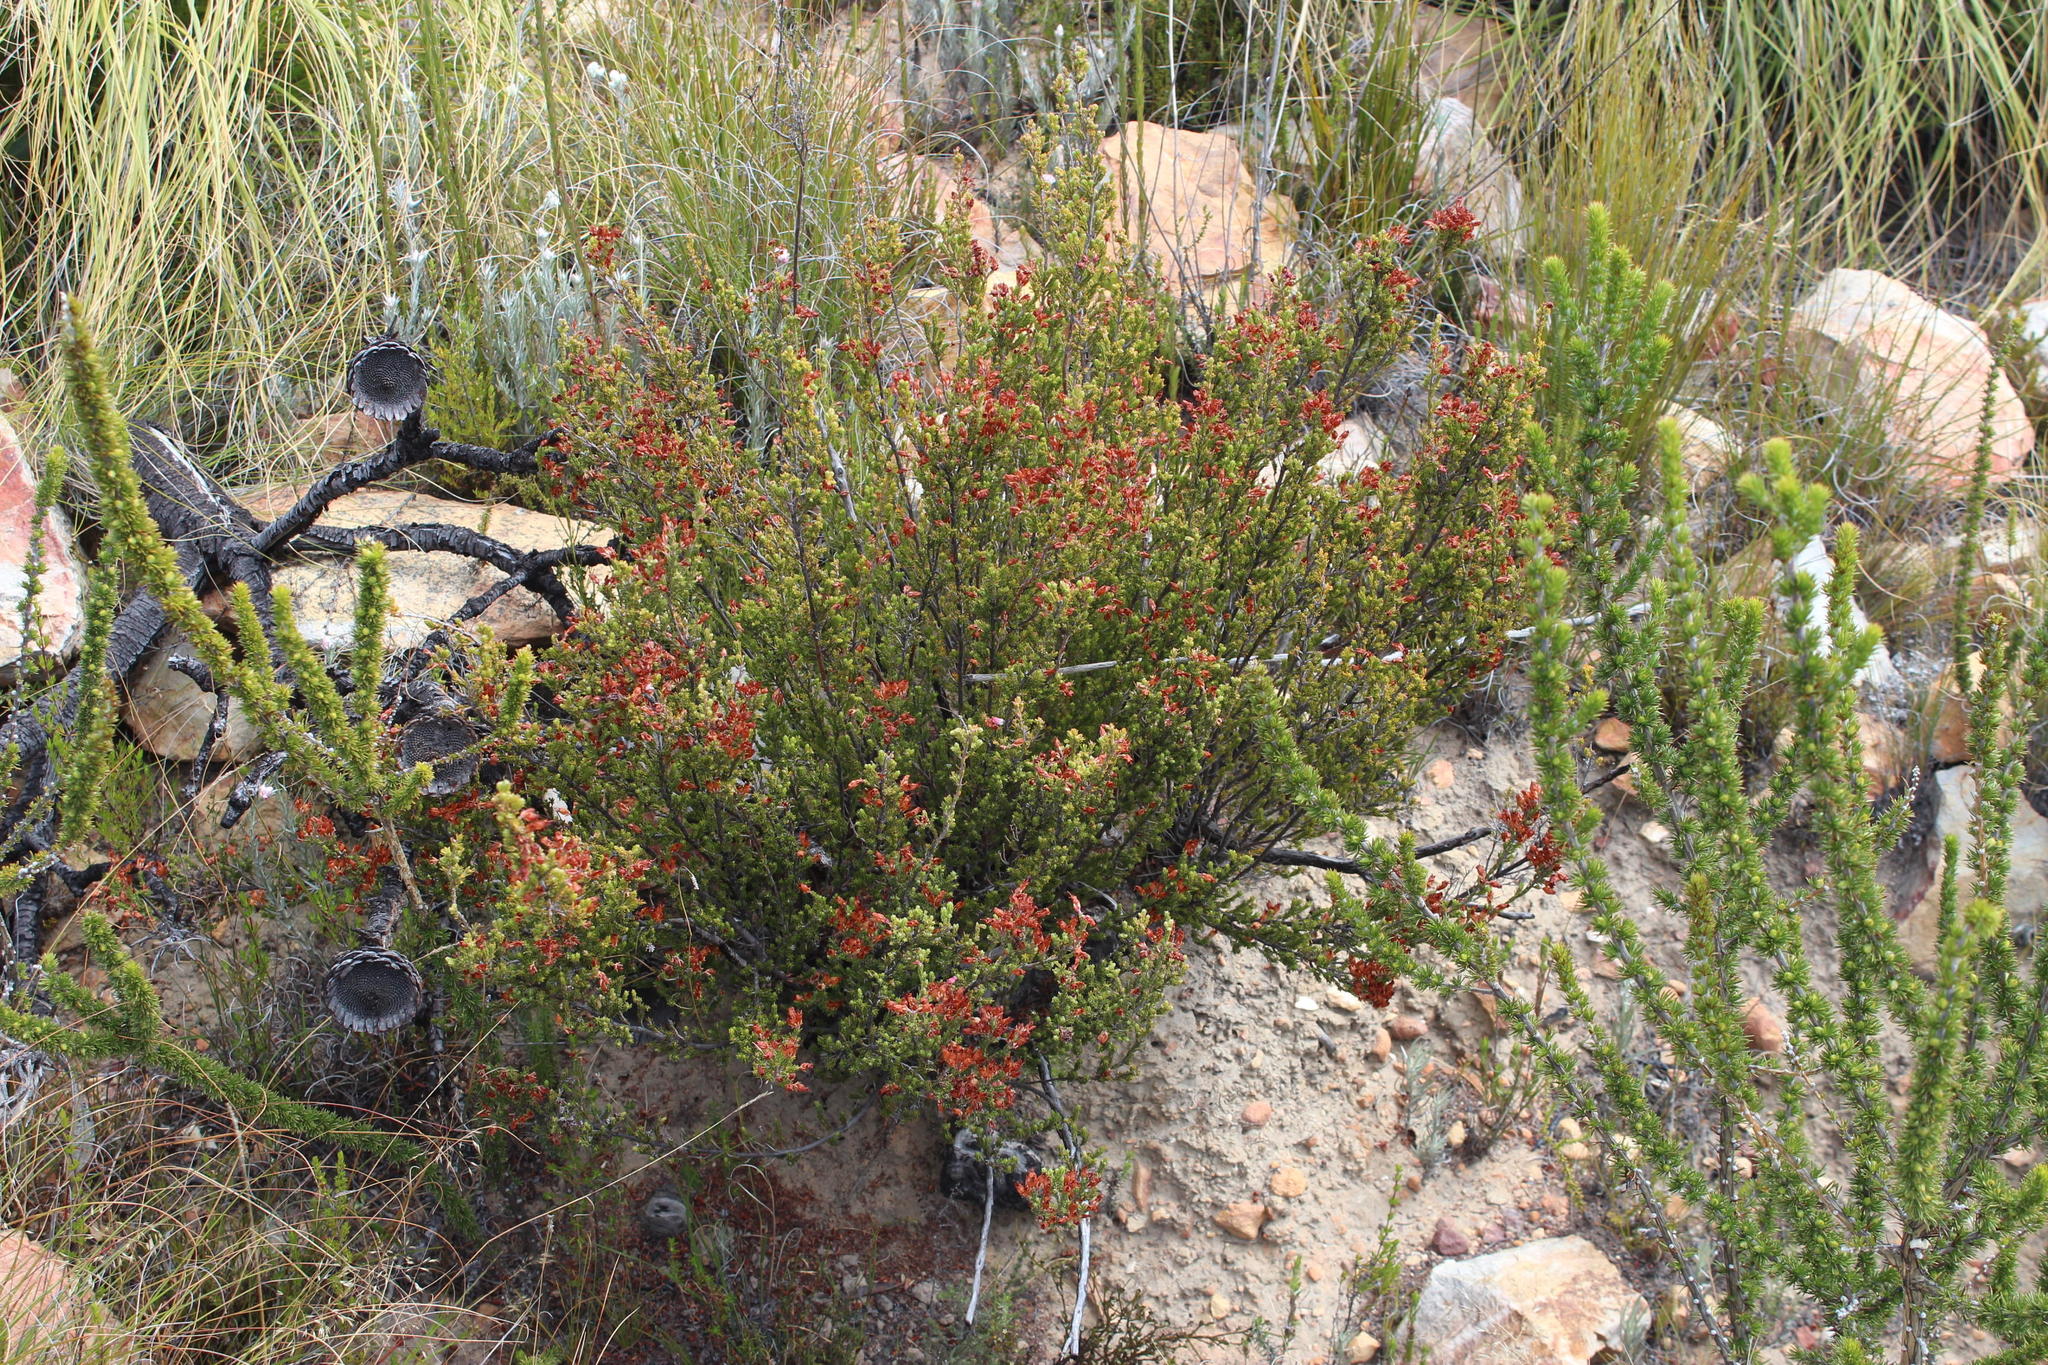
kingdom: Plantae
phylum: Tracheophyta
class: Magnoliopsida
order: Ericales
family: Ericaceae
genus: Erica
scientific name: Erica recta
